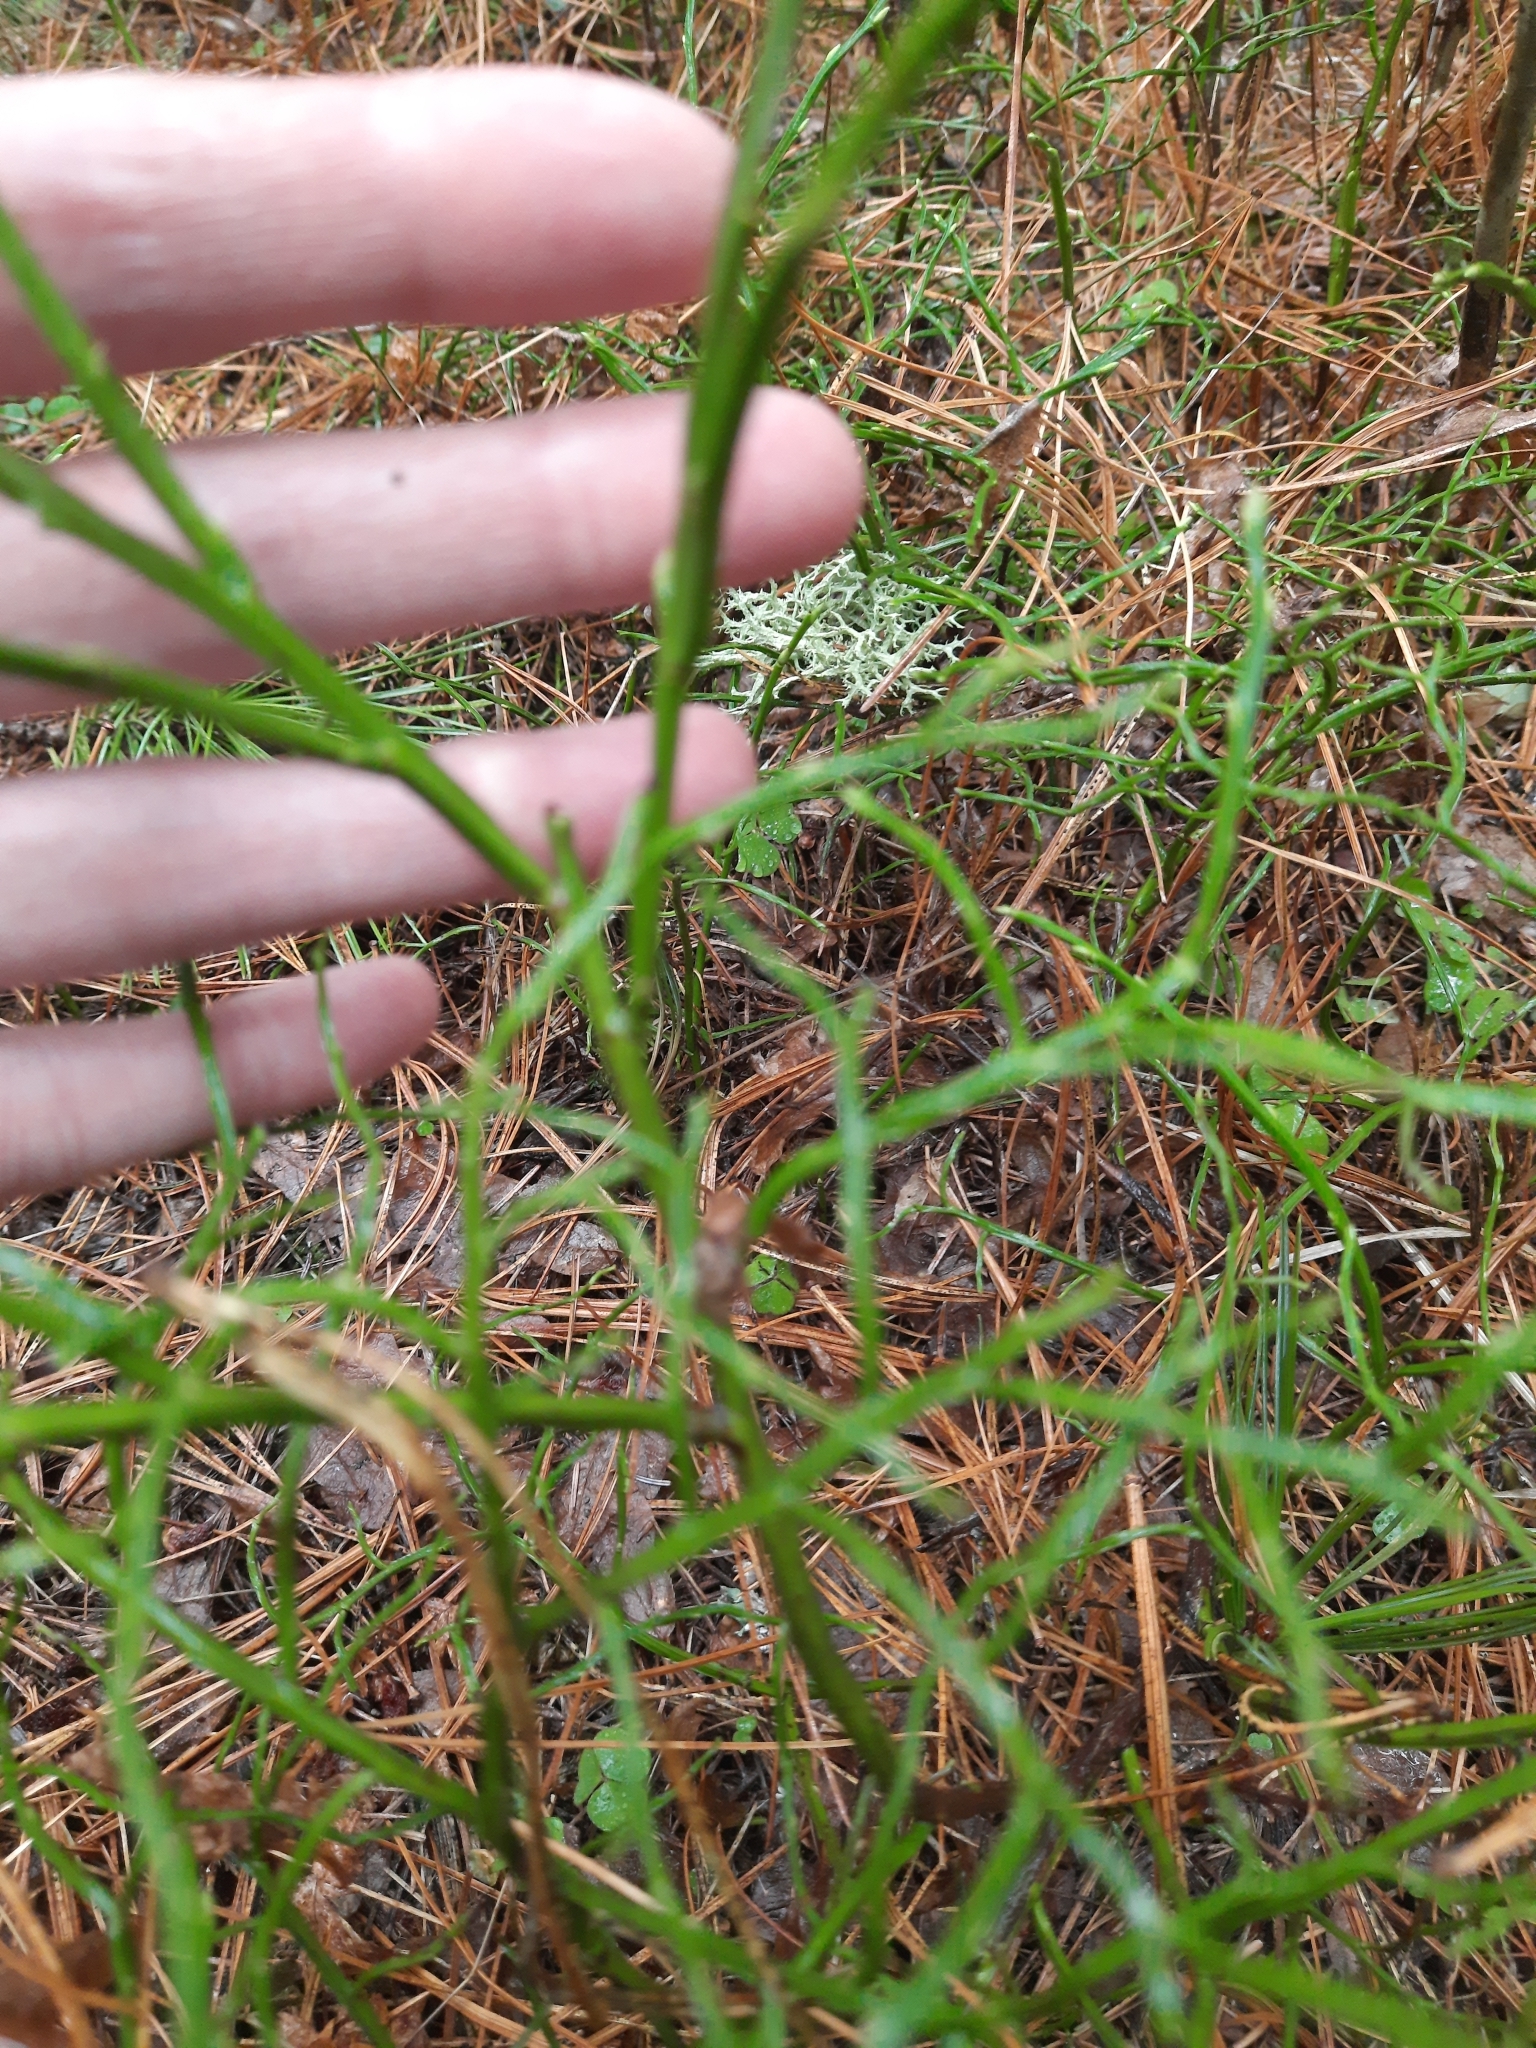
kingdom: Plantae
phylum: Tracheophyta
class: Magnoliopsida
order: Ericales
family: Ericaceae
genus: Vaccinium
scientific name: Vaccinium myrtillus
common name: Bilberry
